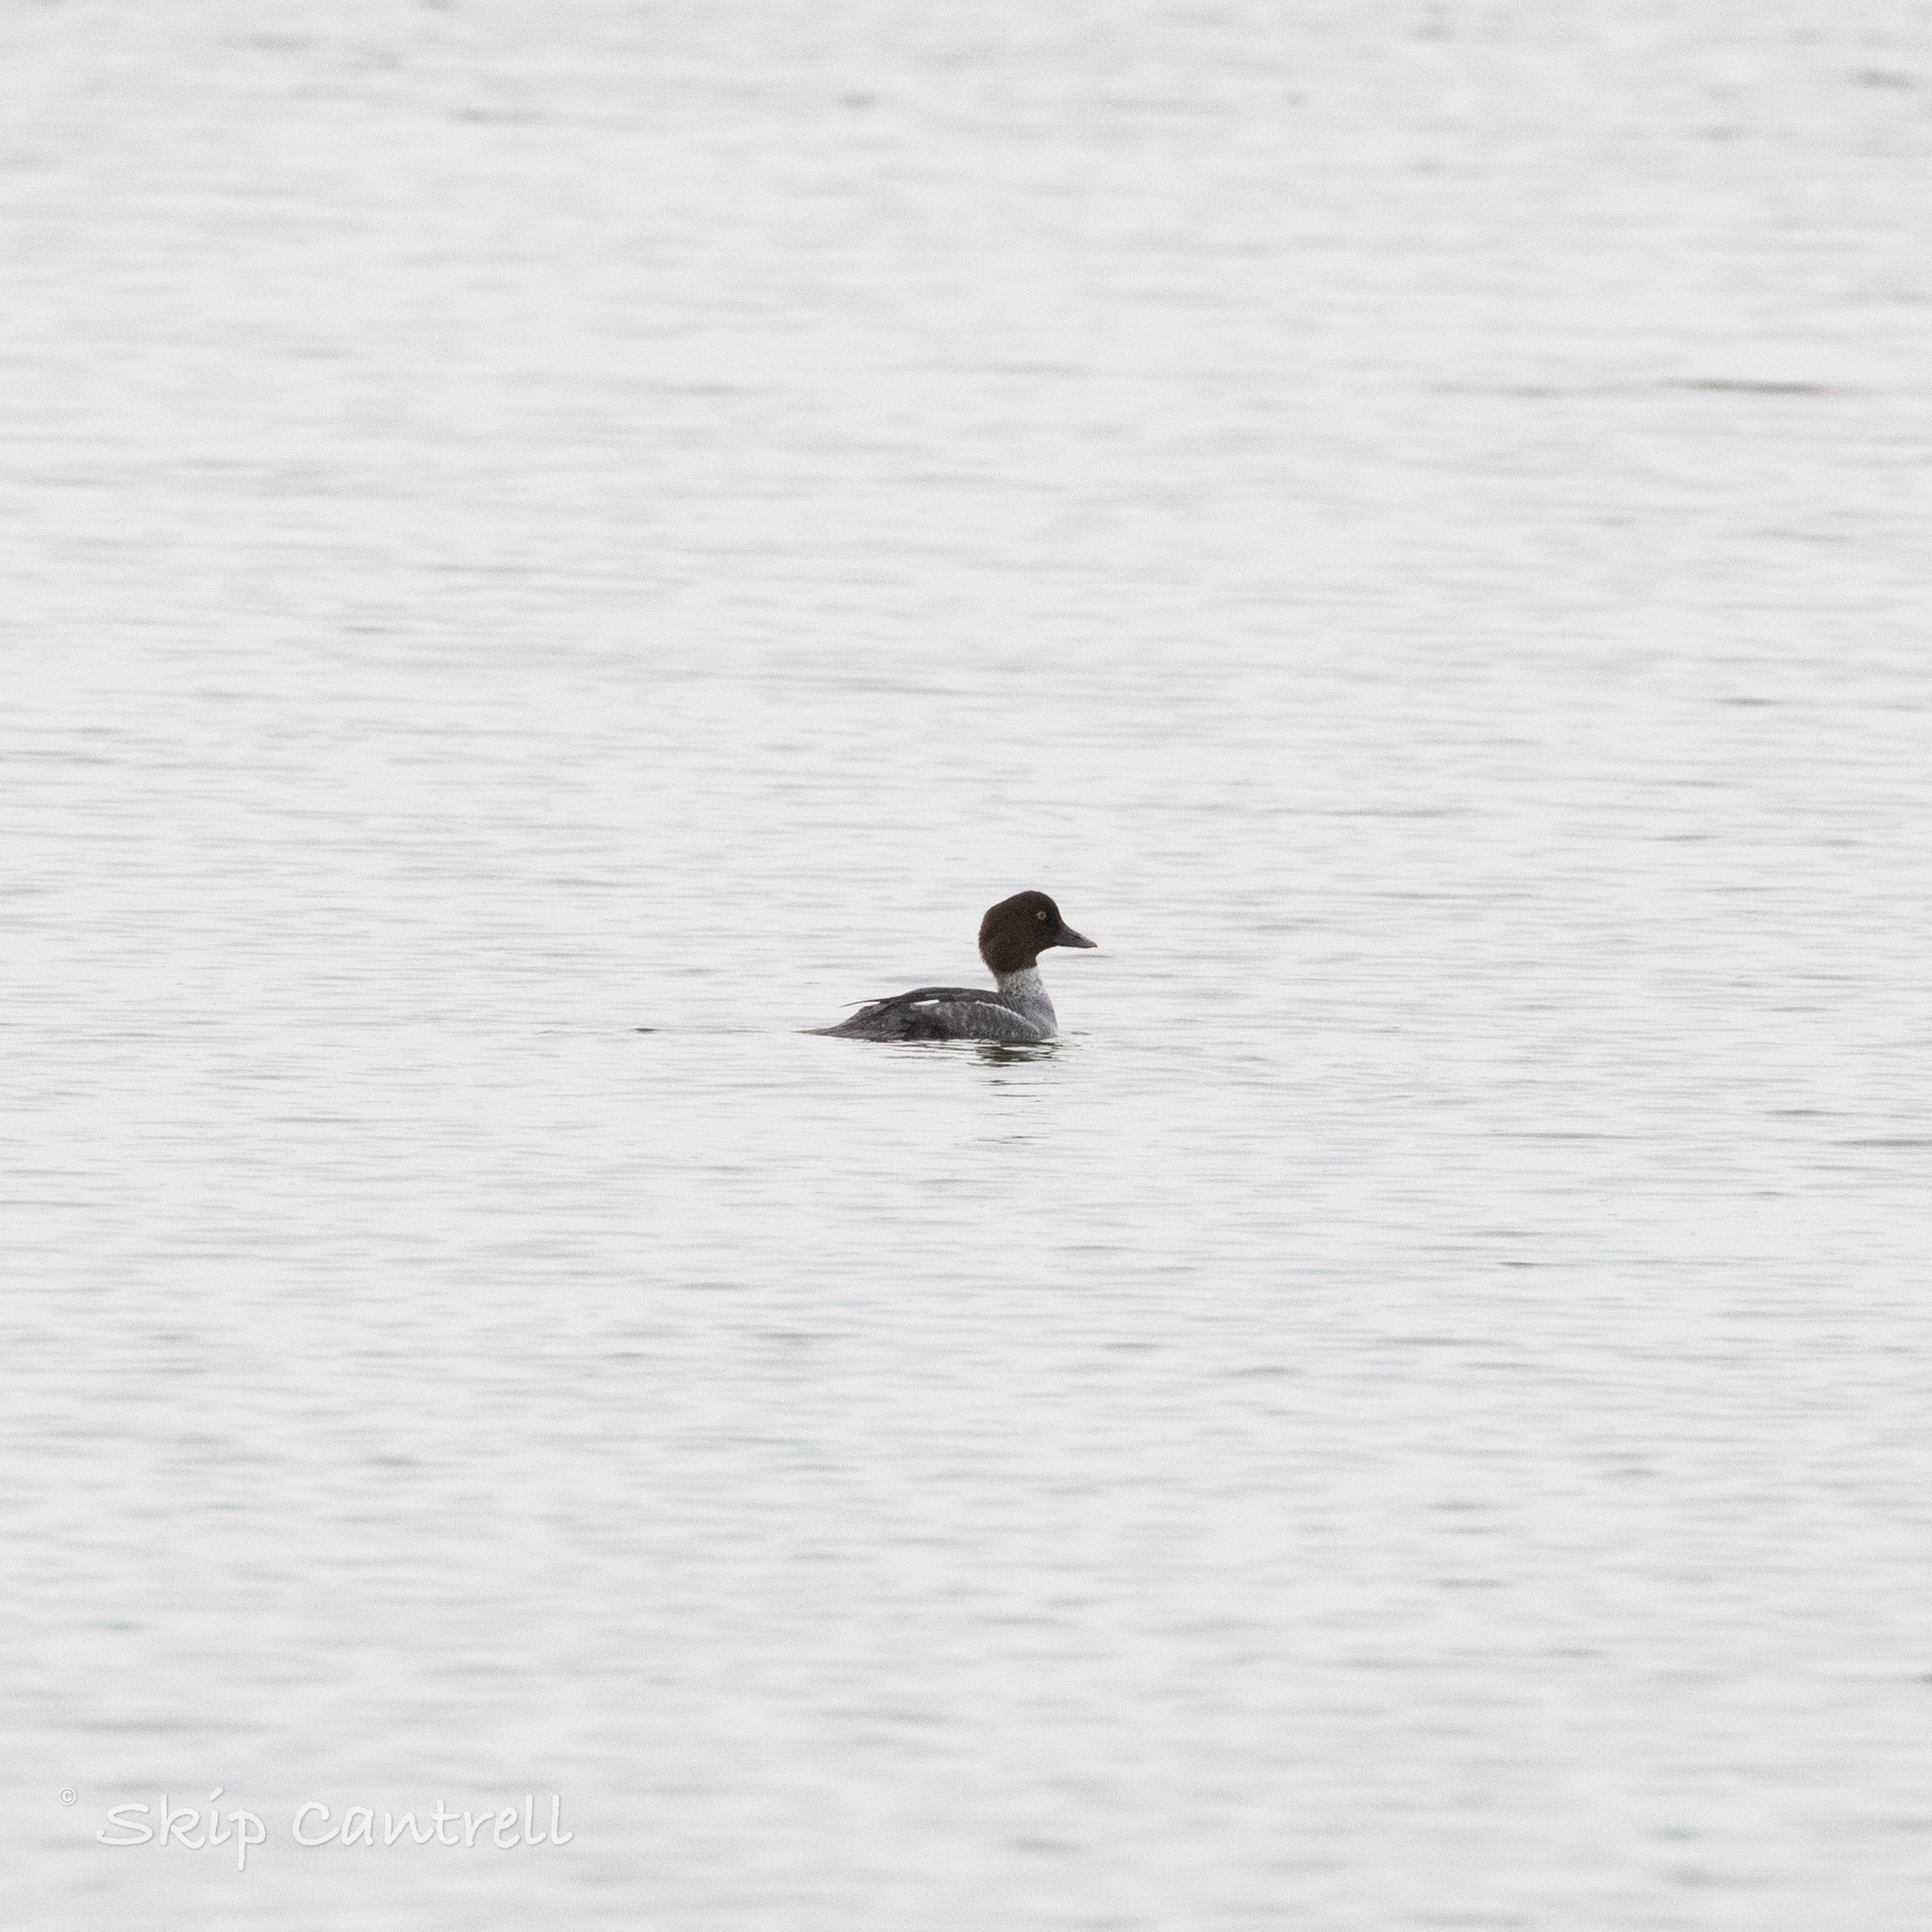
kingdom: Animalia
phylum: Chordata
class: Aves
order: Anseriformes
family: Anatidae
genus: Bucephala
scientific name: Bucephala clangula
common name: Common goldeneye
